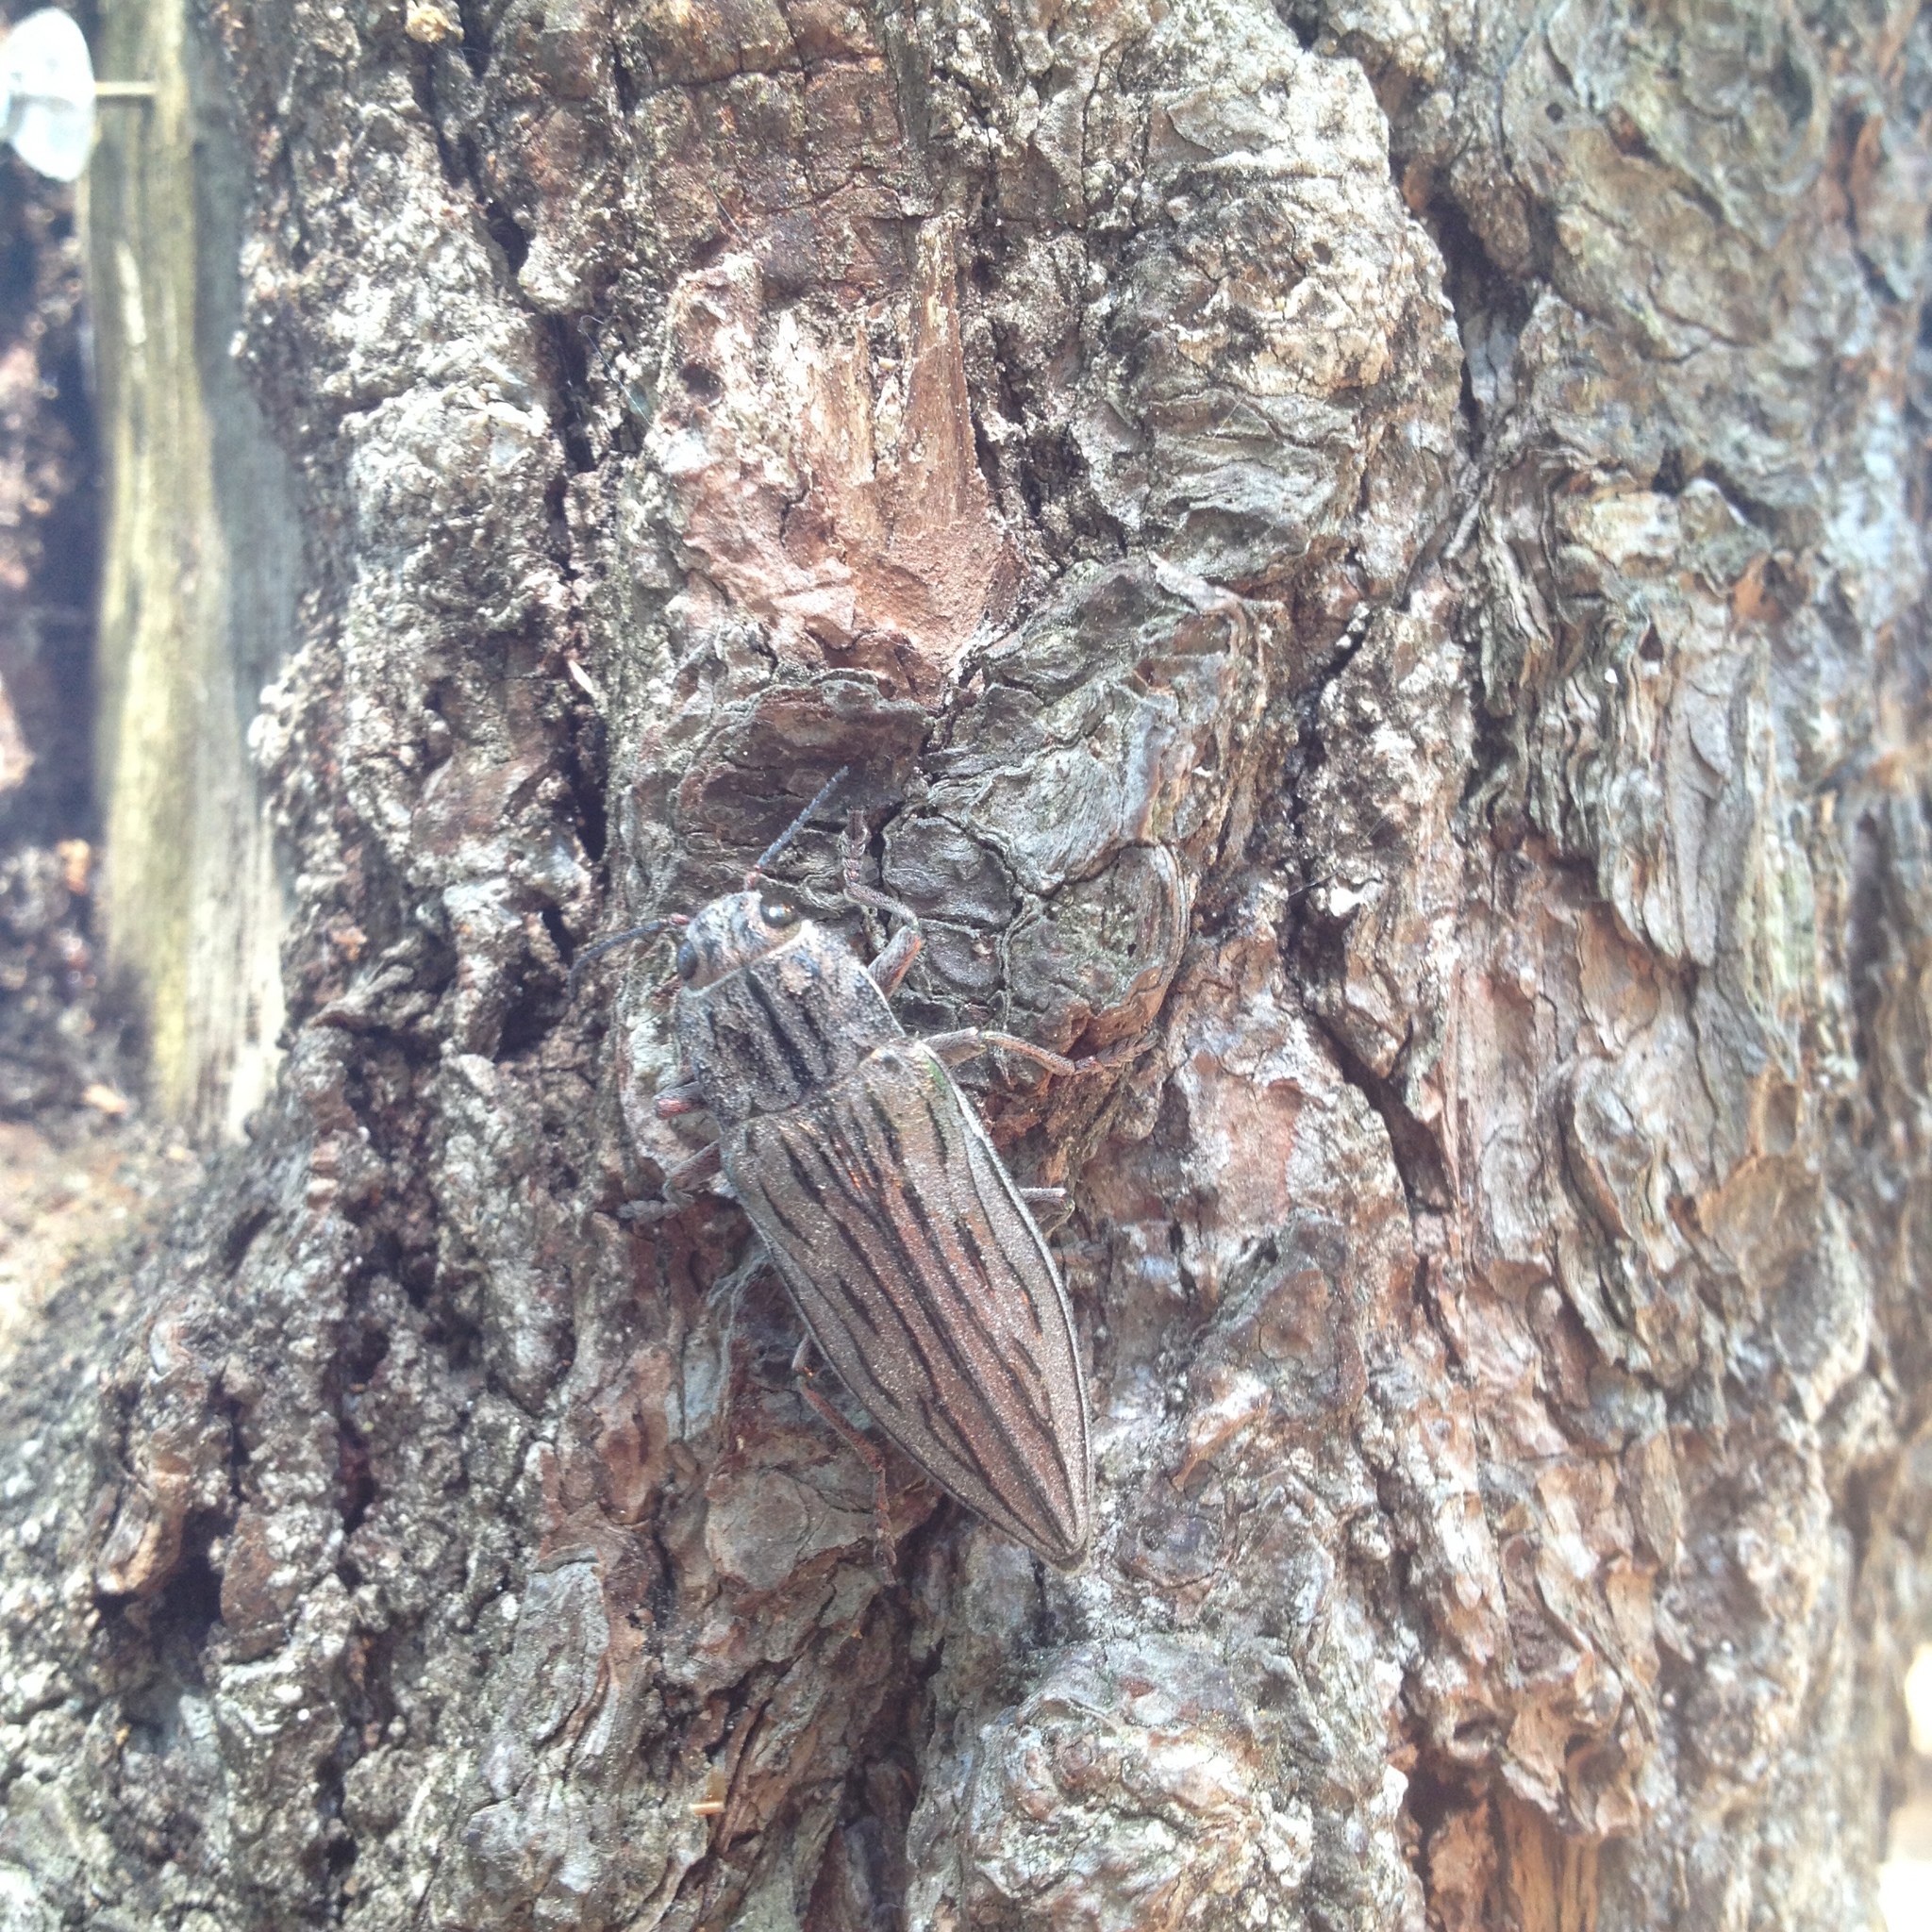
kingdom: Animalia
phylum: Arthropoda
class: Insecta
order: Coleoptera
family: Buprestidae
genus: Chalcophora
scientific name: Chalcophora fortis
